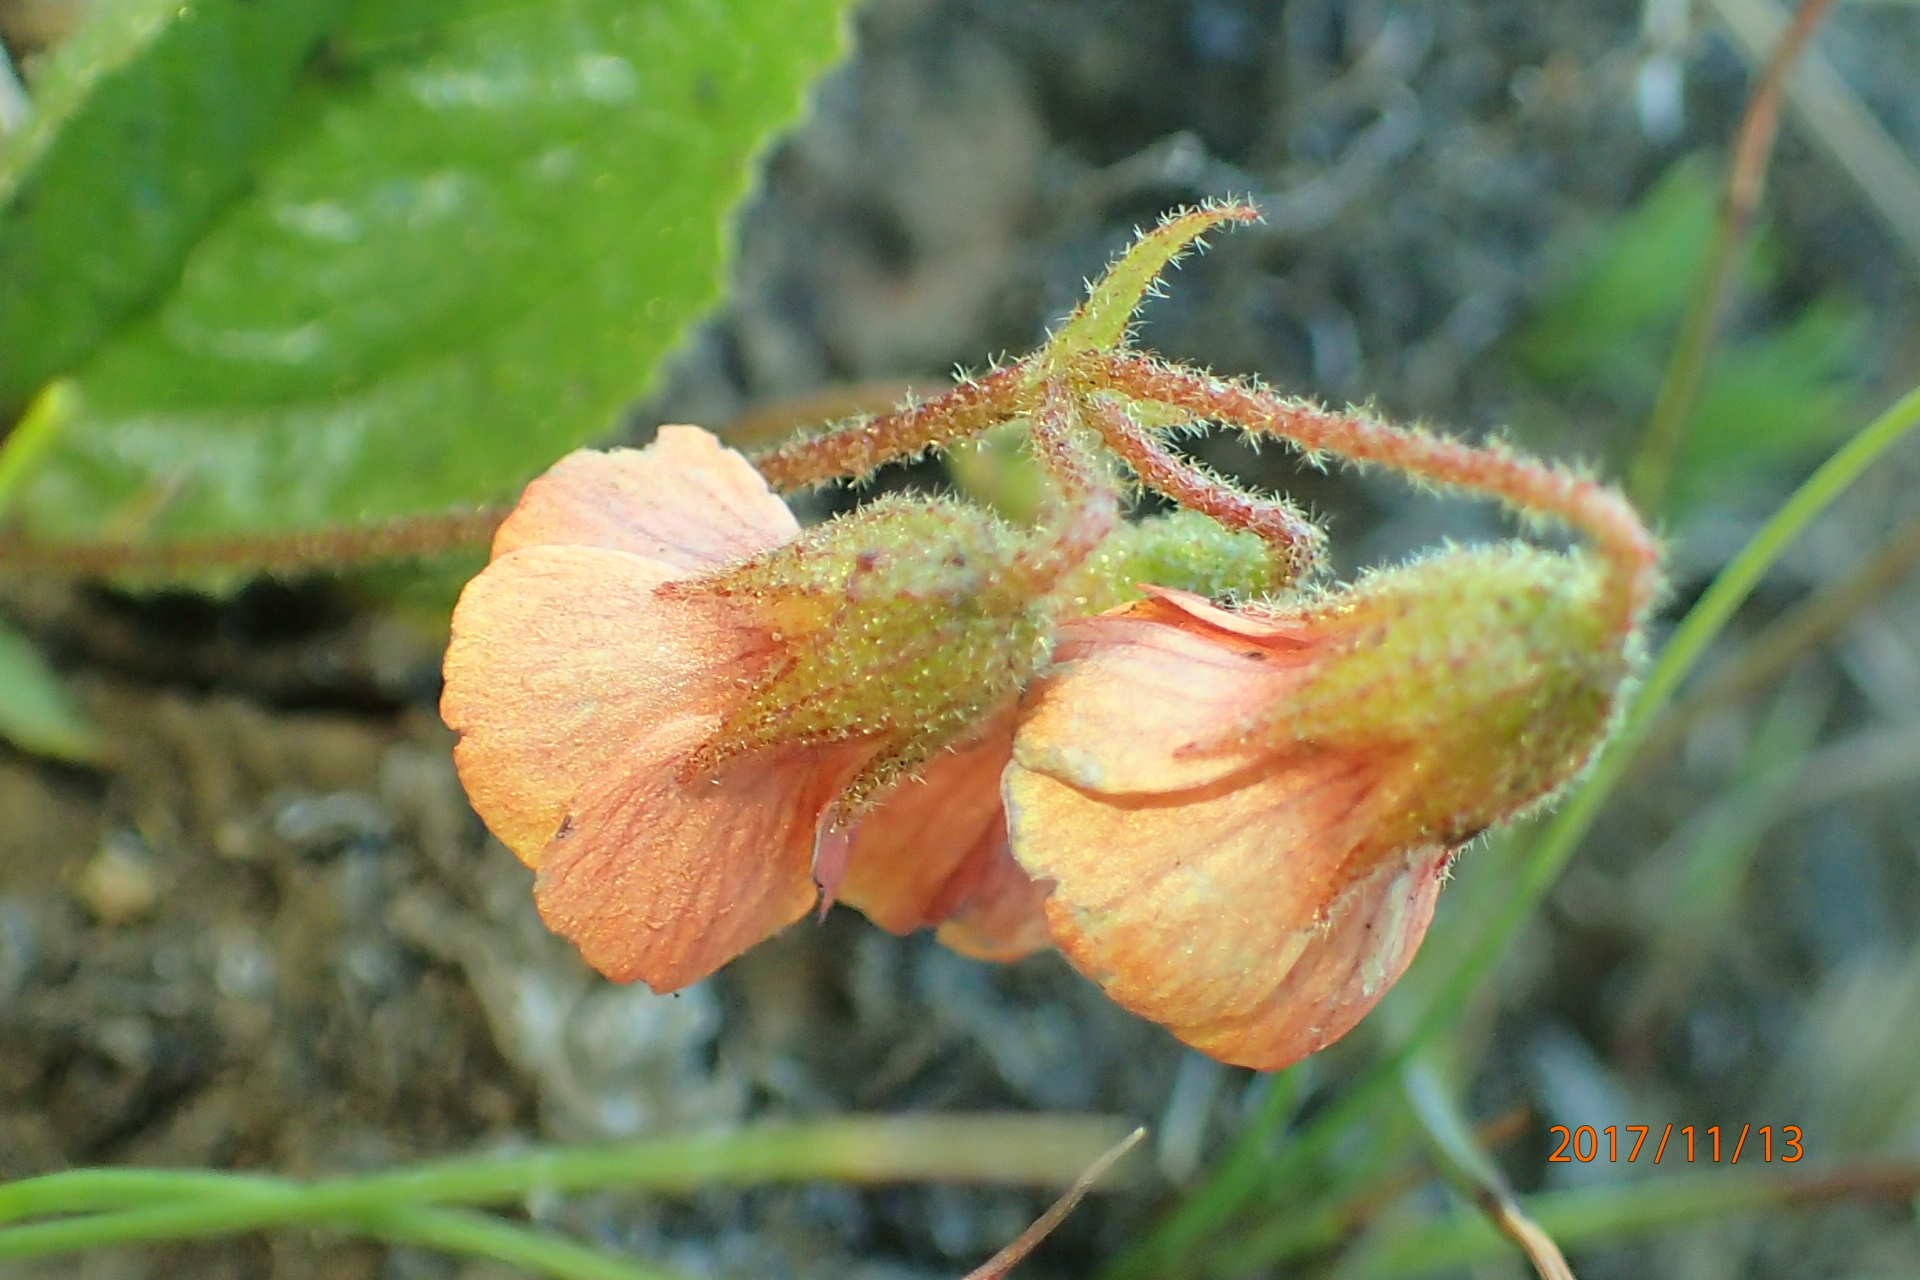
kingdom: Plantae
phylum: Tracheophyta
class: Magnoliopsida
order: Malvales
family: Malvaceae
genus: Hermannia
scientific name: Hermannia cristata
